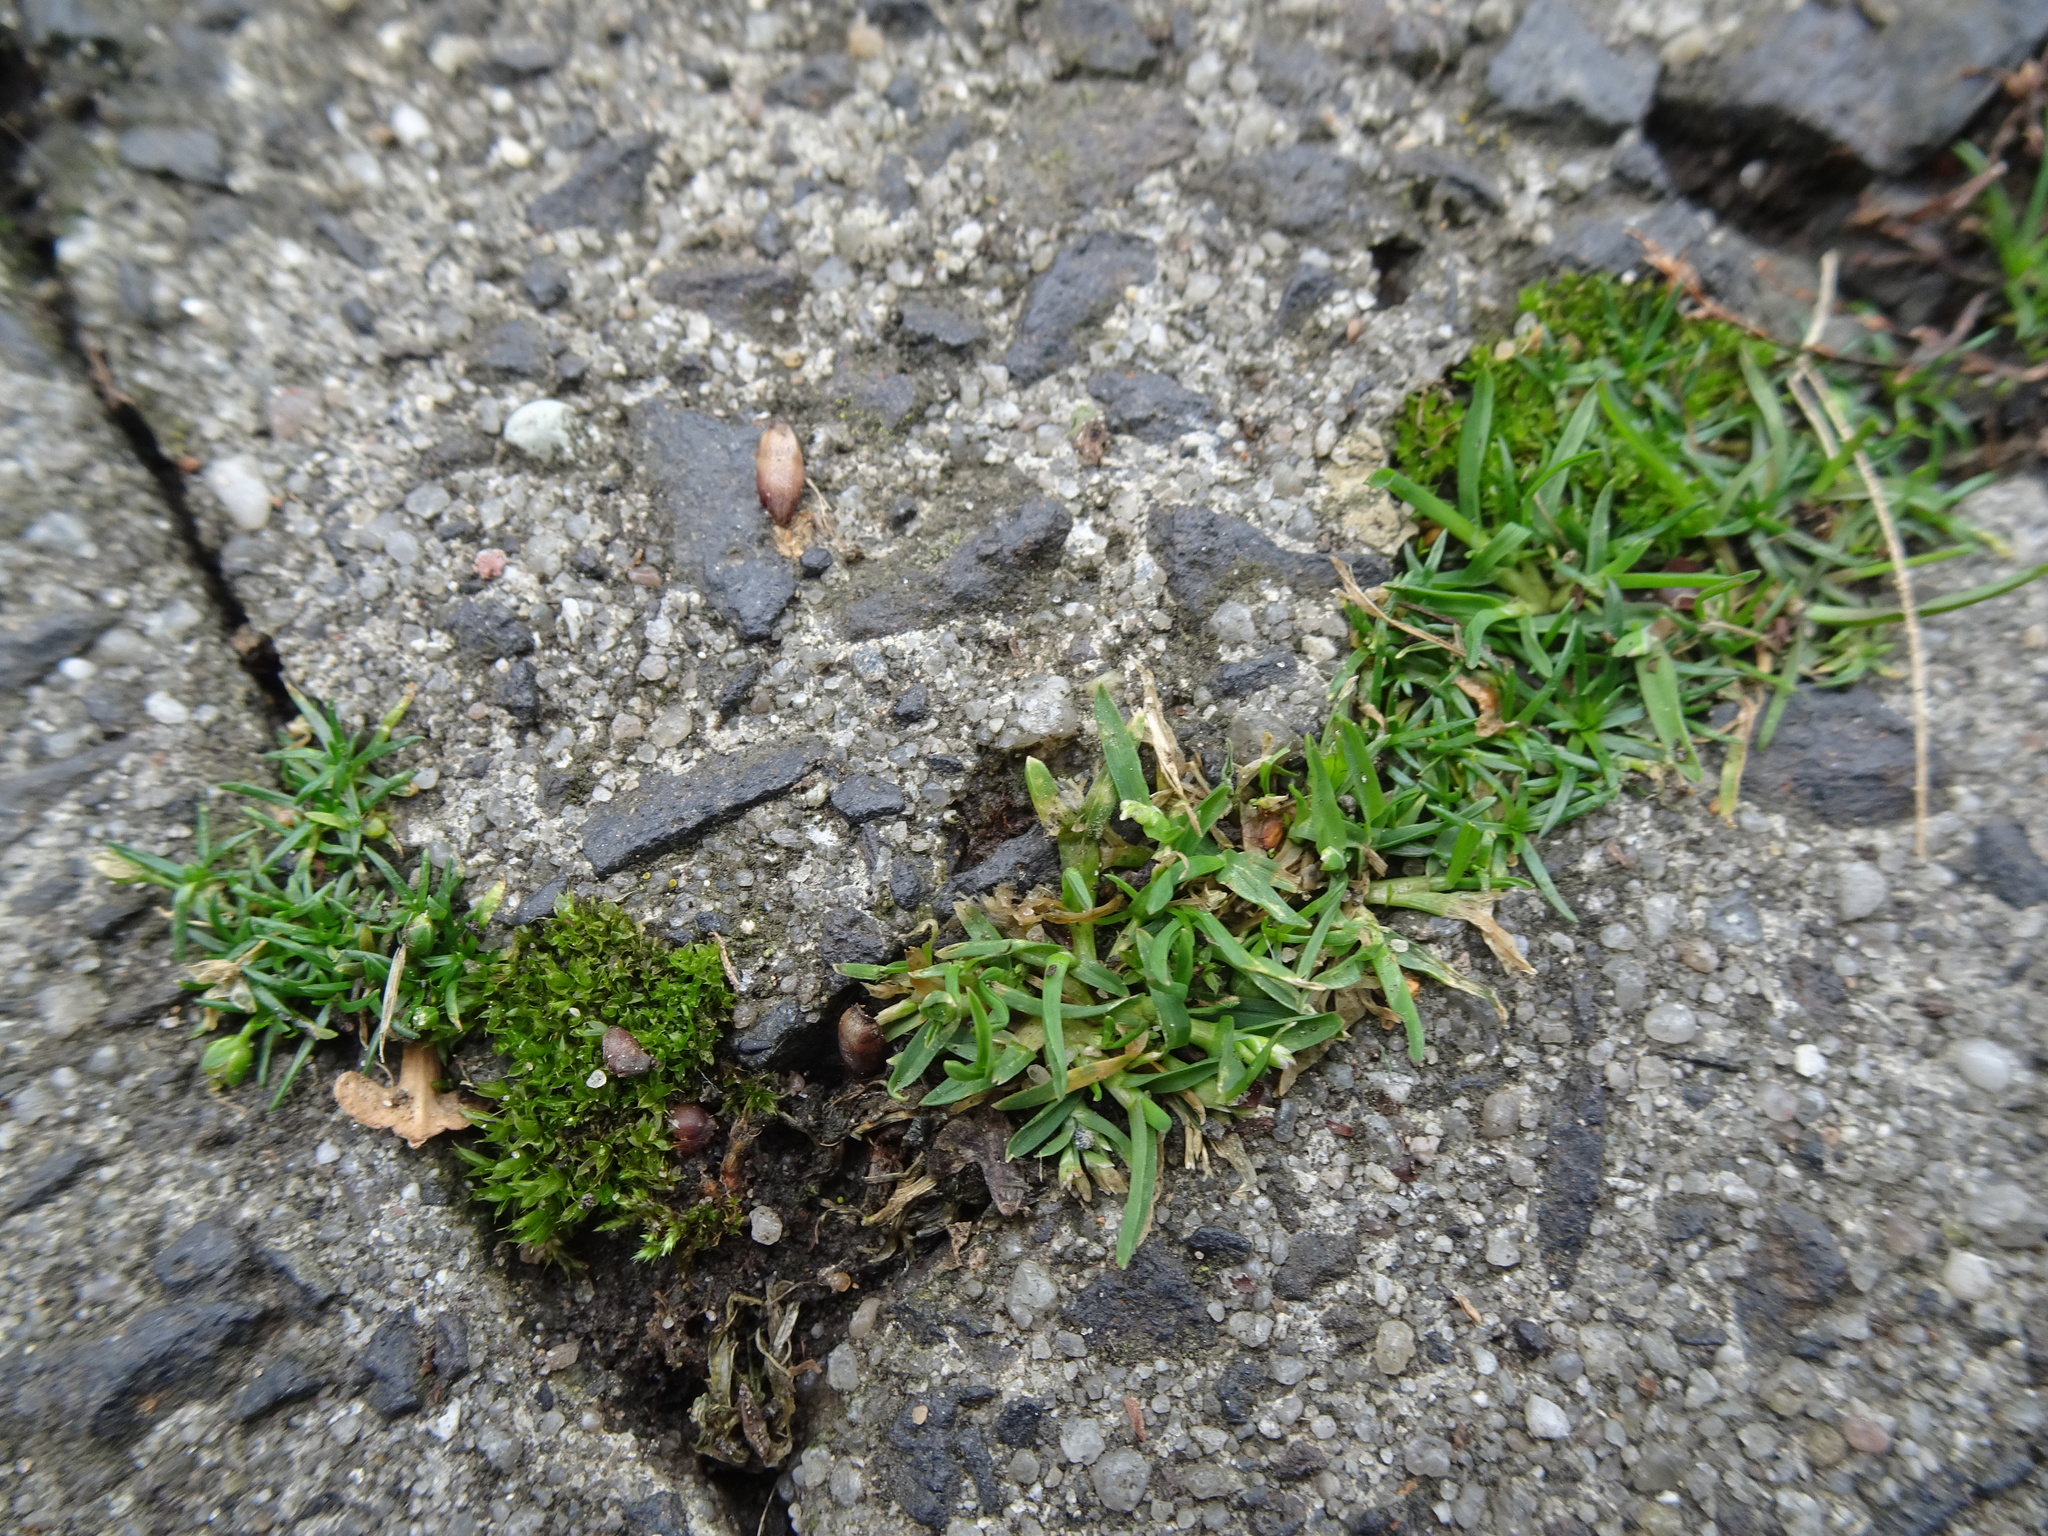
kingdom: Plantae
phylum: Tracheophyta
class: Magnoliopsida
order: Caryophyllales
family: Caryophyllaceae
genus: Sagina
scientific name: Sagina procumbens
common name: Procumbent pearlwort
